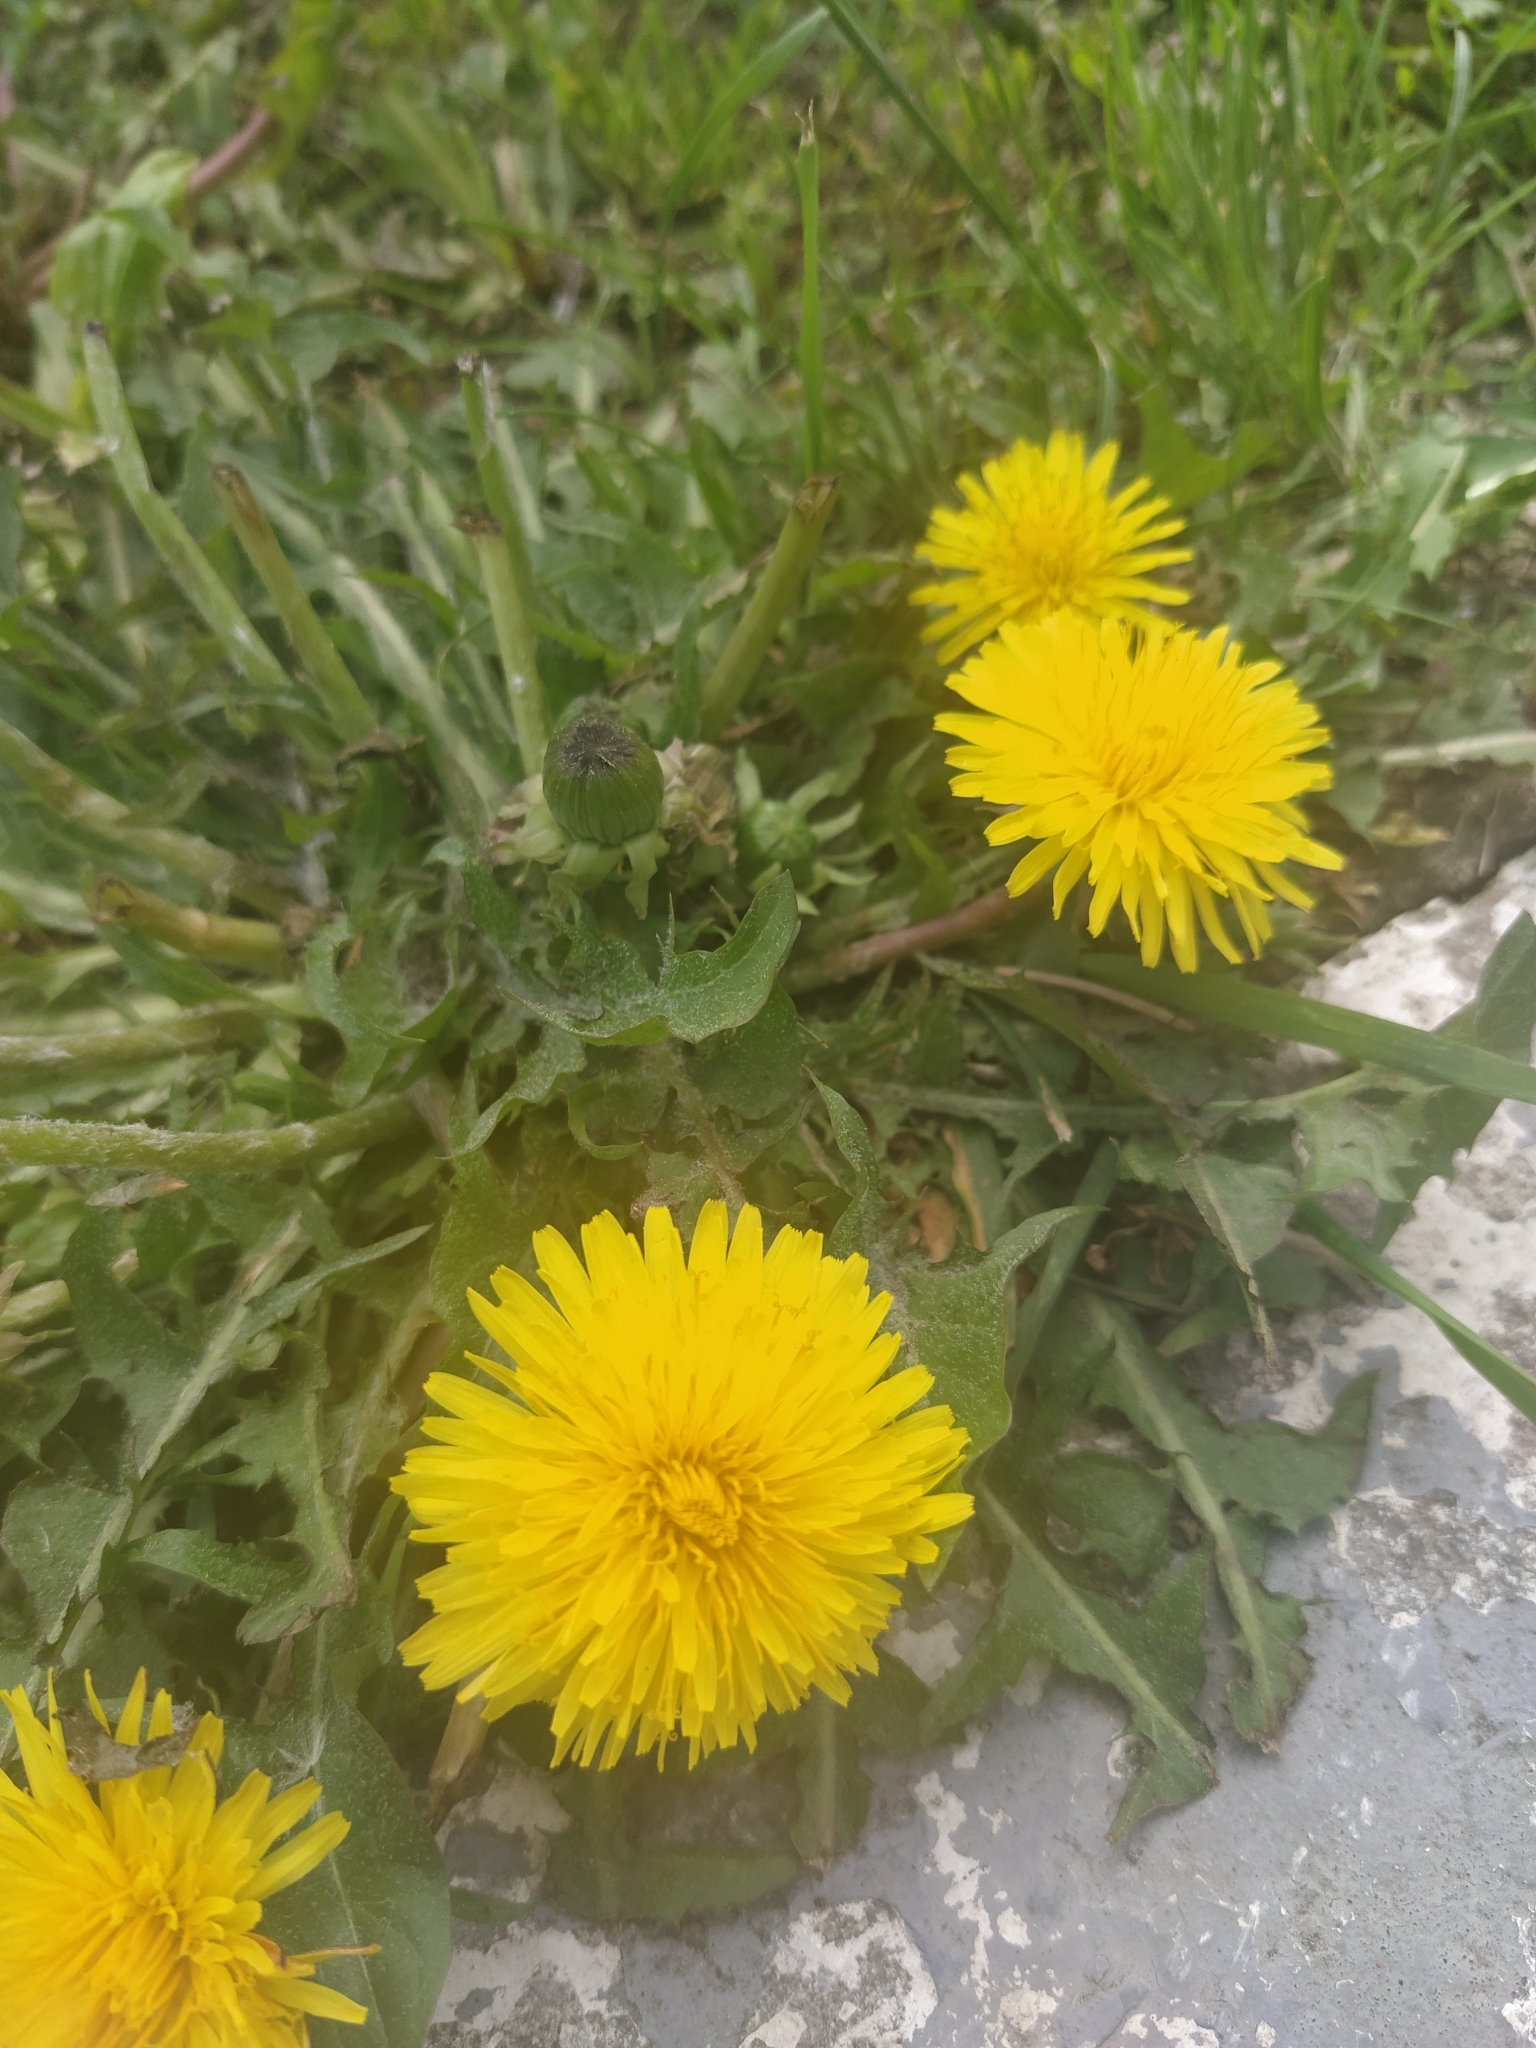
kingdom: Plantae
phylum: Tracheophyta
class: Magnoliopsida
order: Asterales
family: Asteraceae
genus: Taraxacum
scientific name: Taraxacum officinale
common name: Common dandelion
